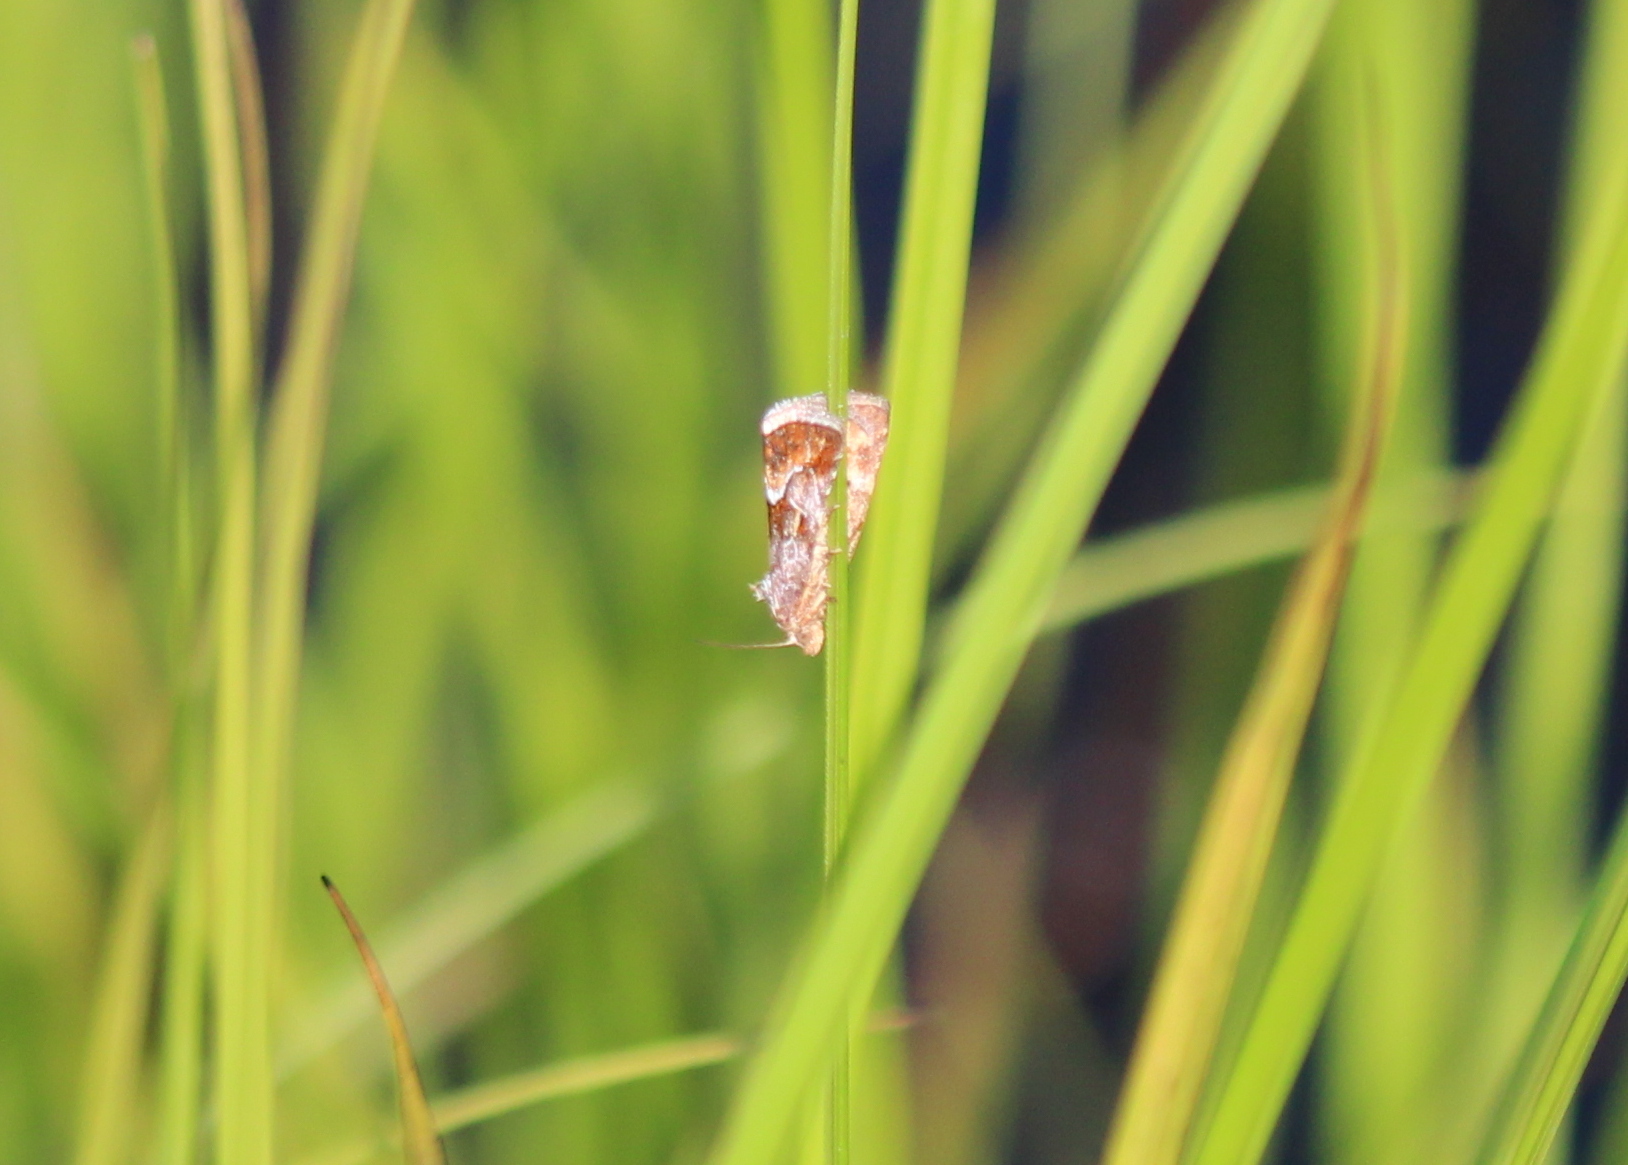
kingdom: Animalia
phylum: Arthropoda
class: Insecta
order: Lepidoptera
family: Noctuidae
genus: Deltote
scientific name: Deltote bellicula
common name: Bog glyph
